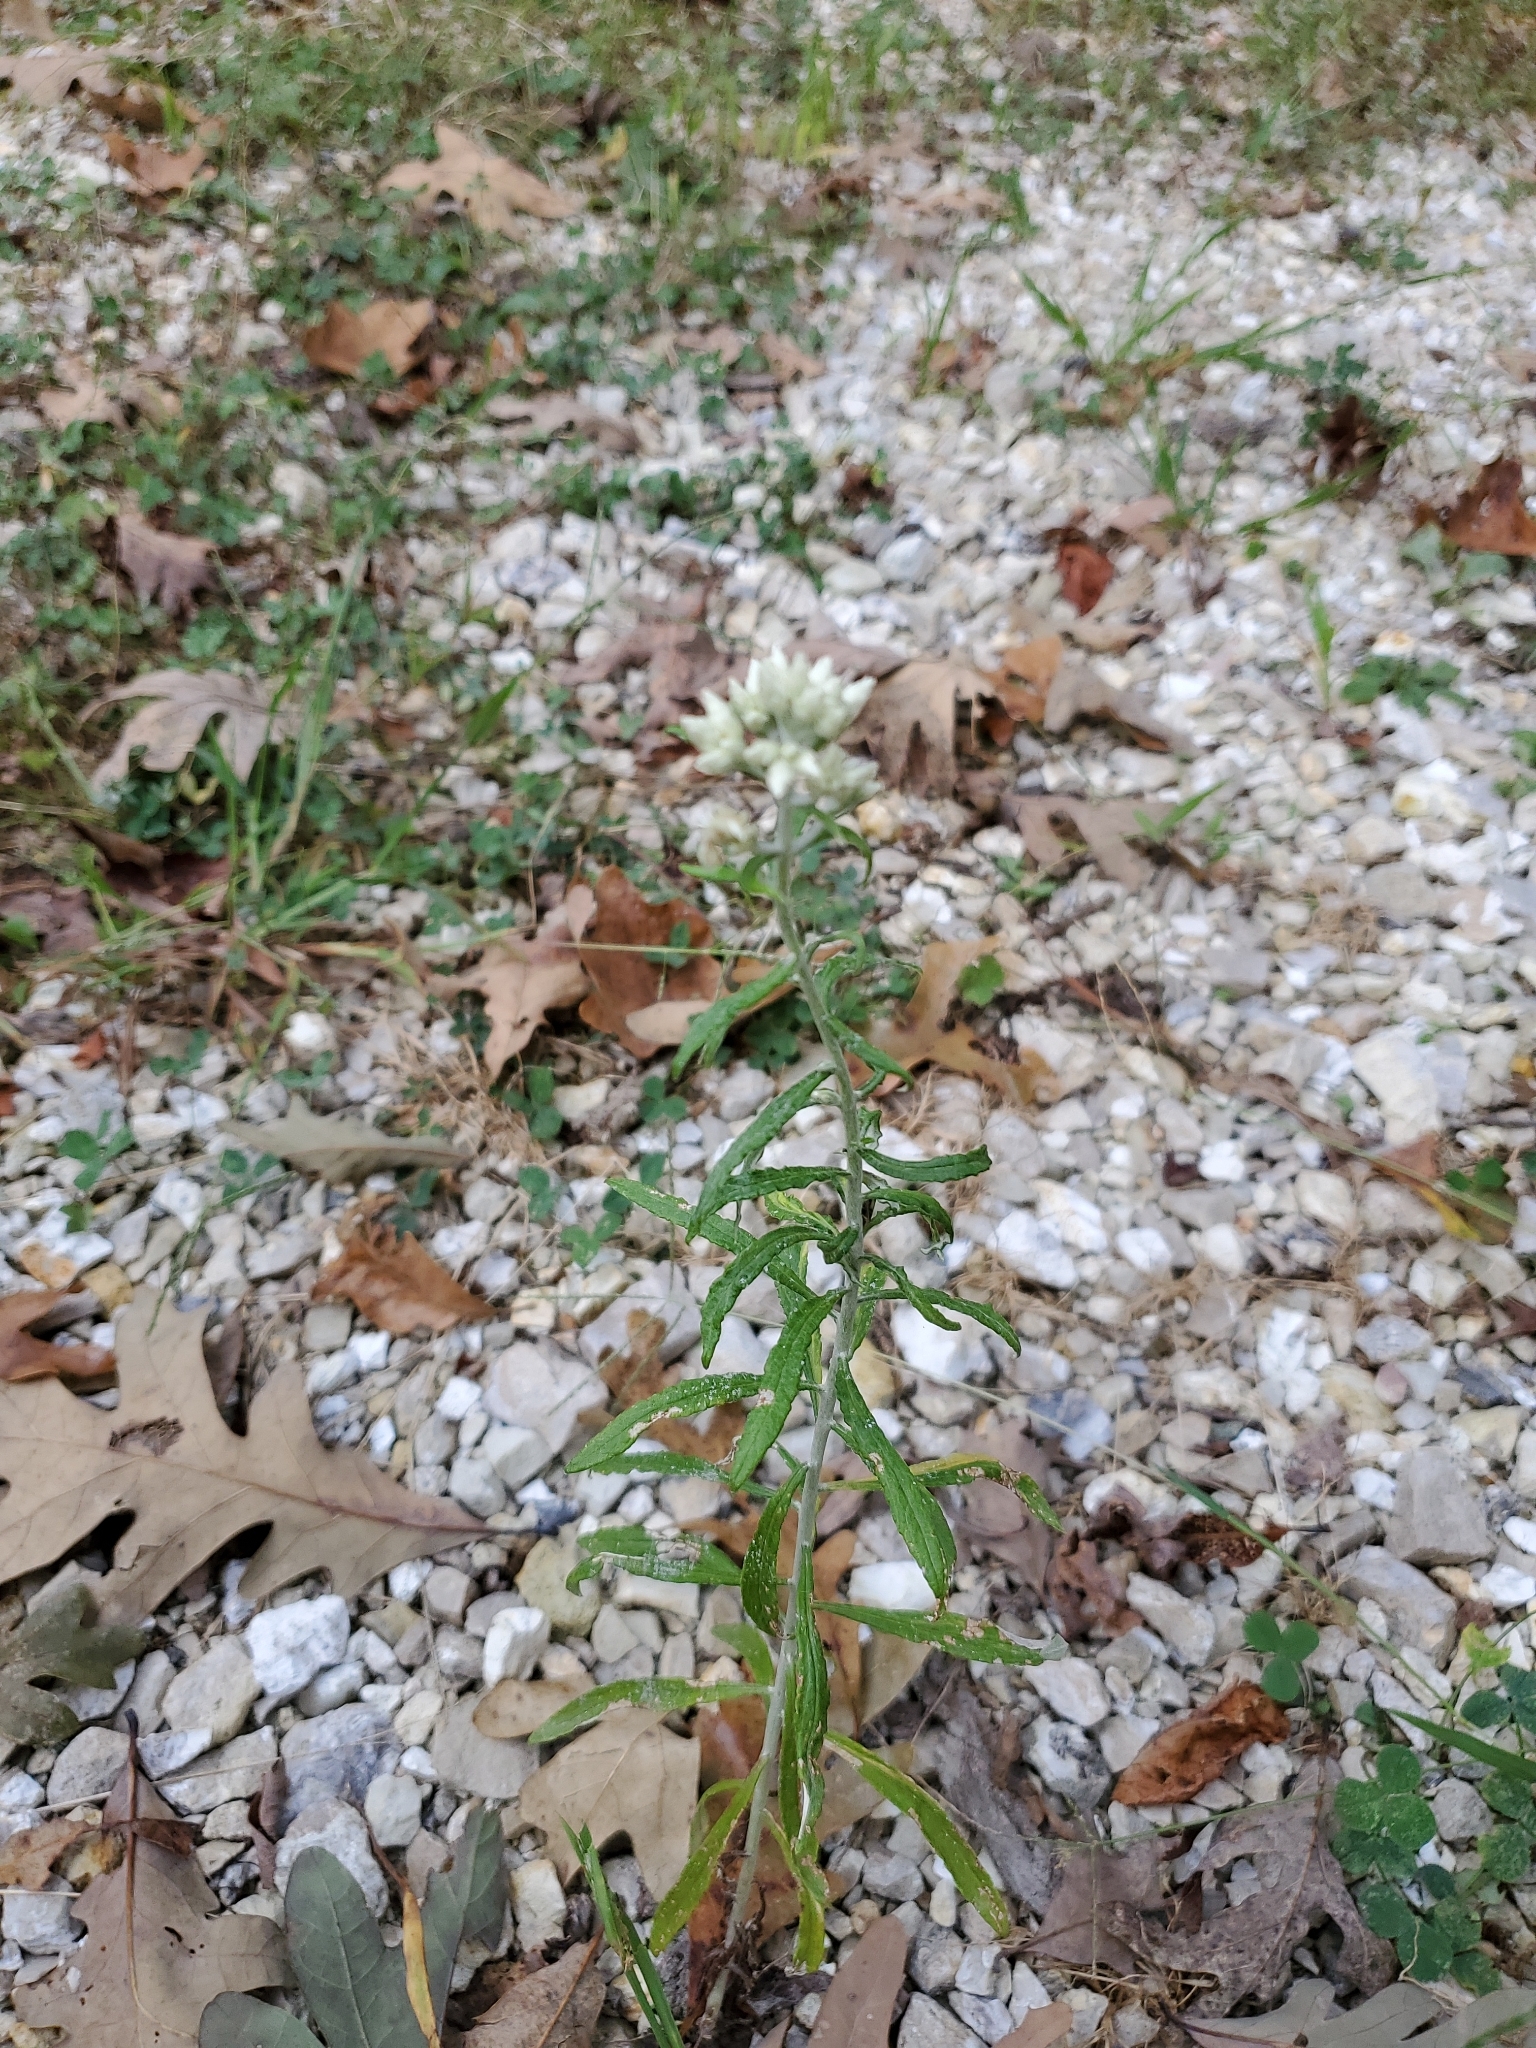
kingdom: Plantae
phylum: Tracheophyta
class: Magnoliopsida
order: Asterales
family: Asteraceae
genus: Pseudognaphalium
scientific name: Pseudognaphalium obtusifolium
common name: Eastern rabbit-tobacco
